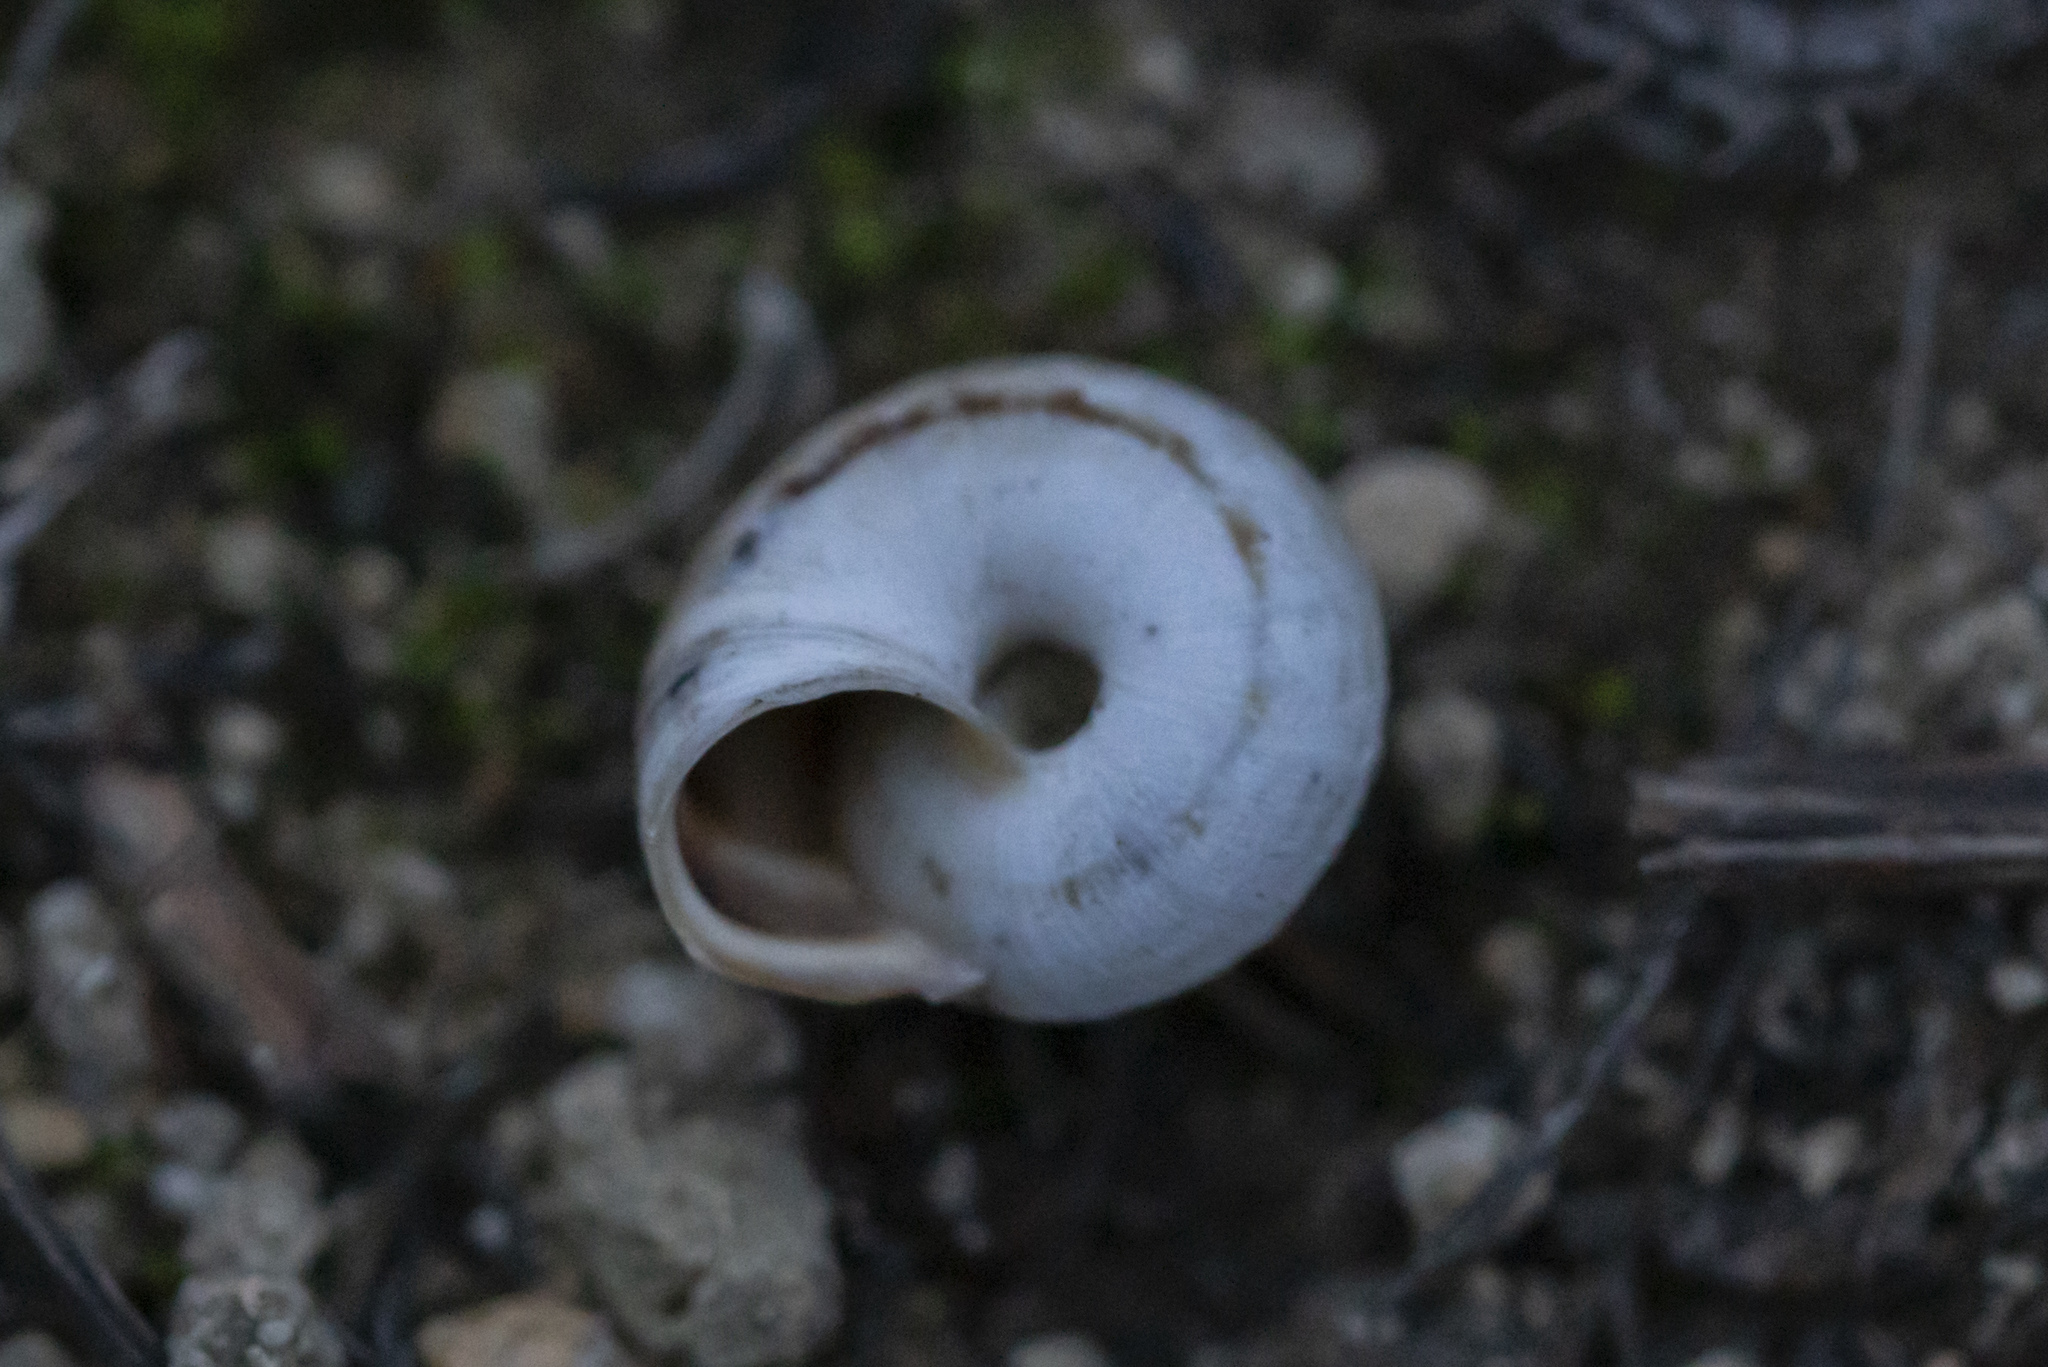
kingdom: Animalia
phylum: Mollusca
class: Gastropoda
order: Stylommatophora
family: Geomitridae
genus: Xerocrassa
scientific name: Xerocrassa cretica
